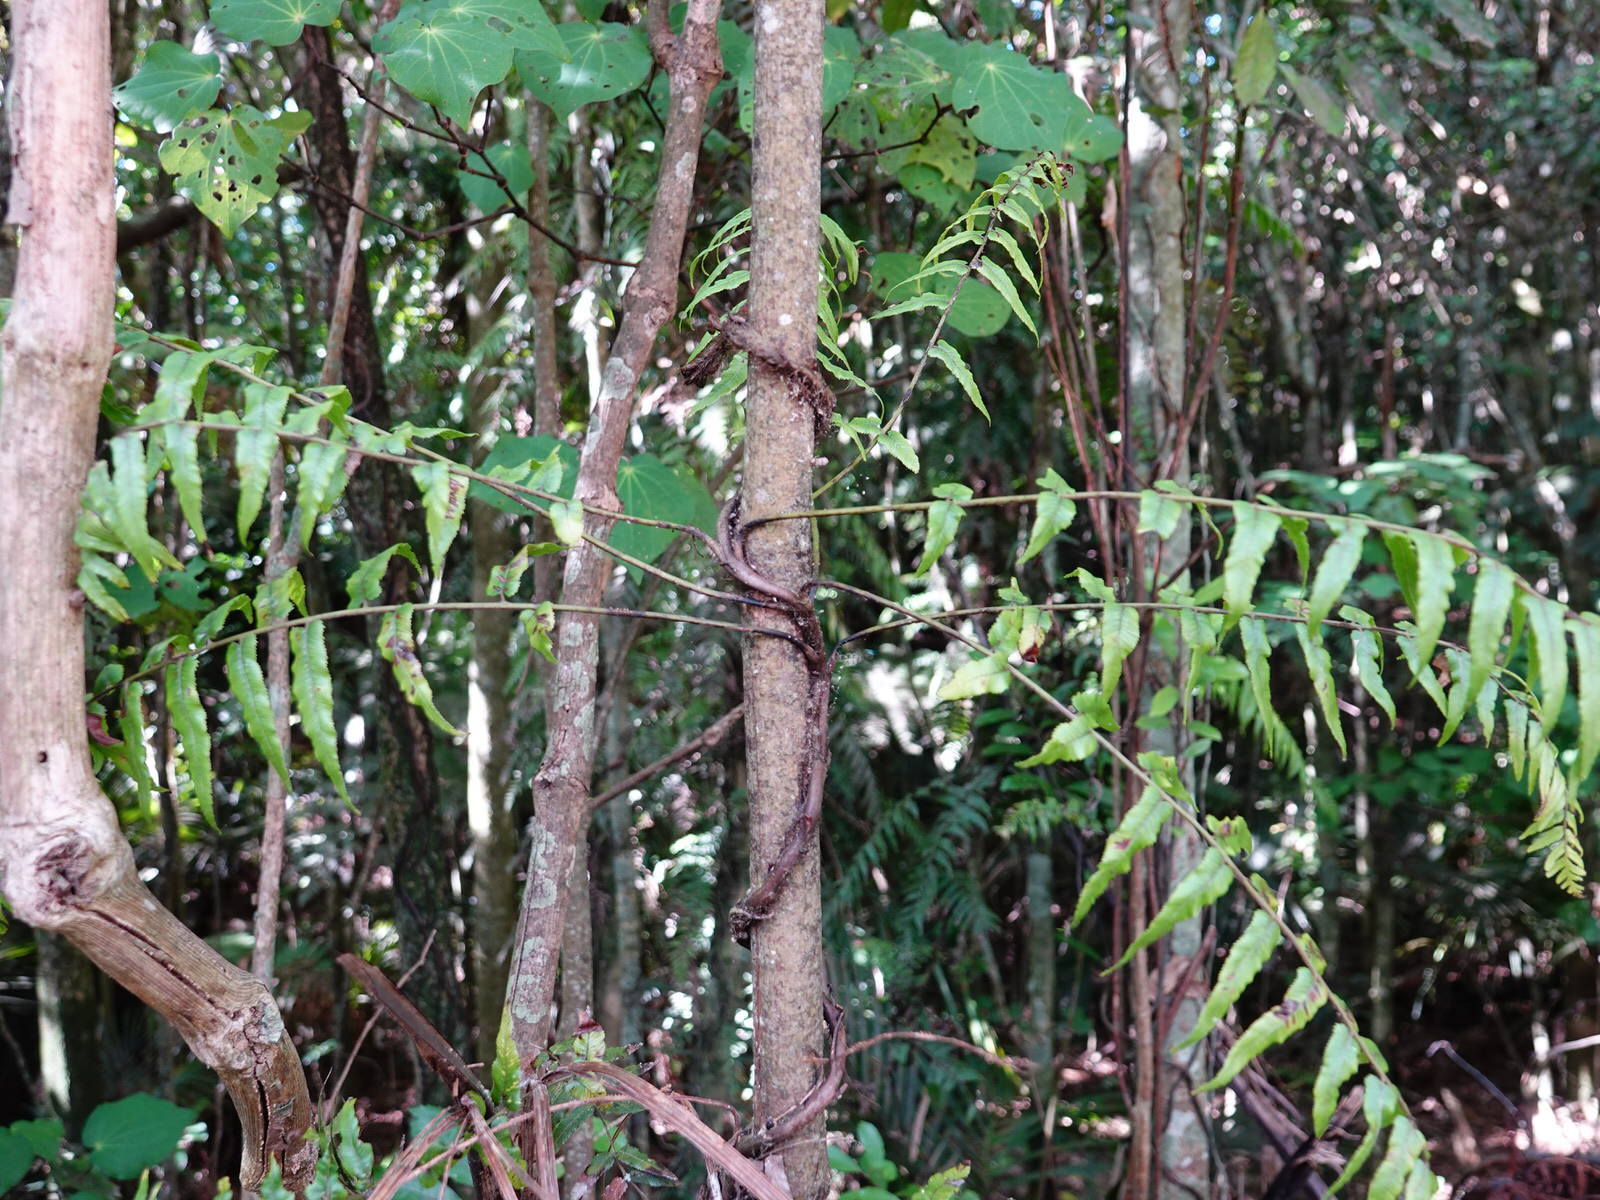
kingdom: Plantae
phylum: Tracheophyta
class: Polypodiopsida
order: Polypodiales
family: Blechnaceae
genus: Icarus
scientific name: Icarus filiformis
